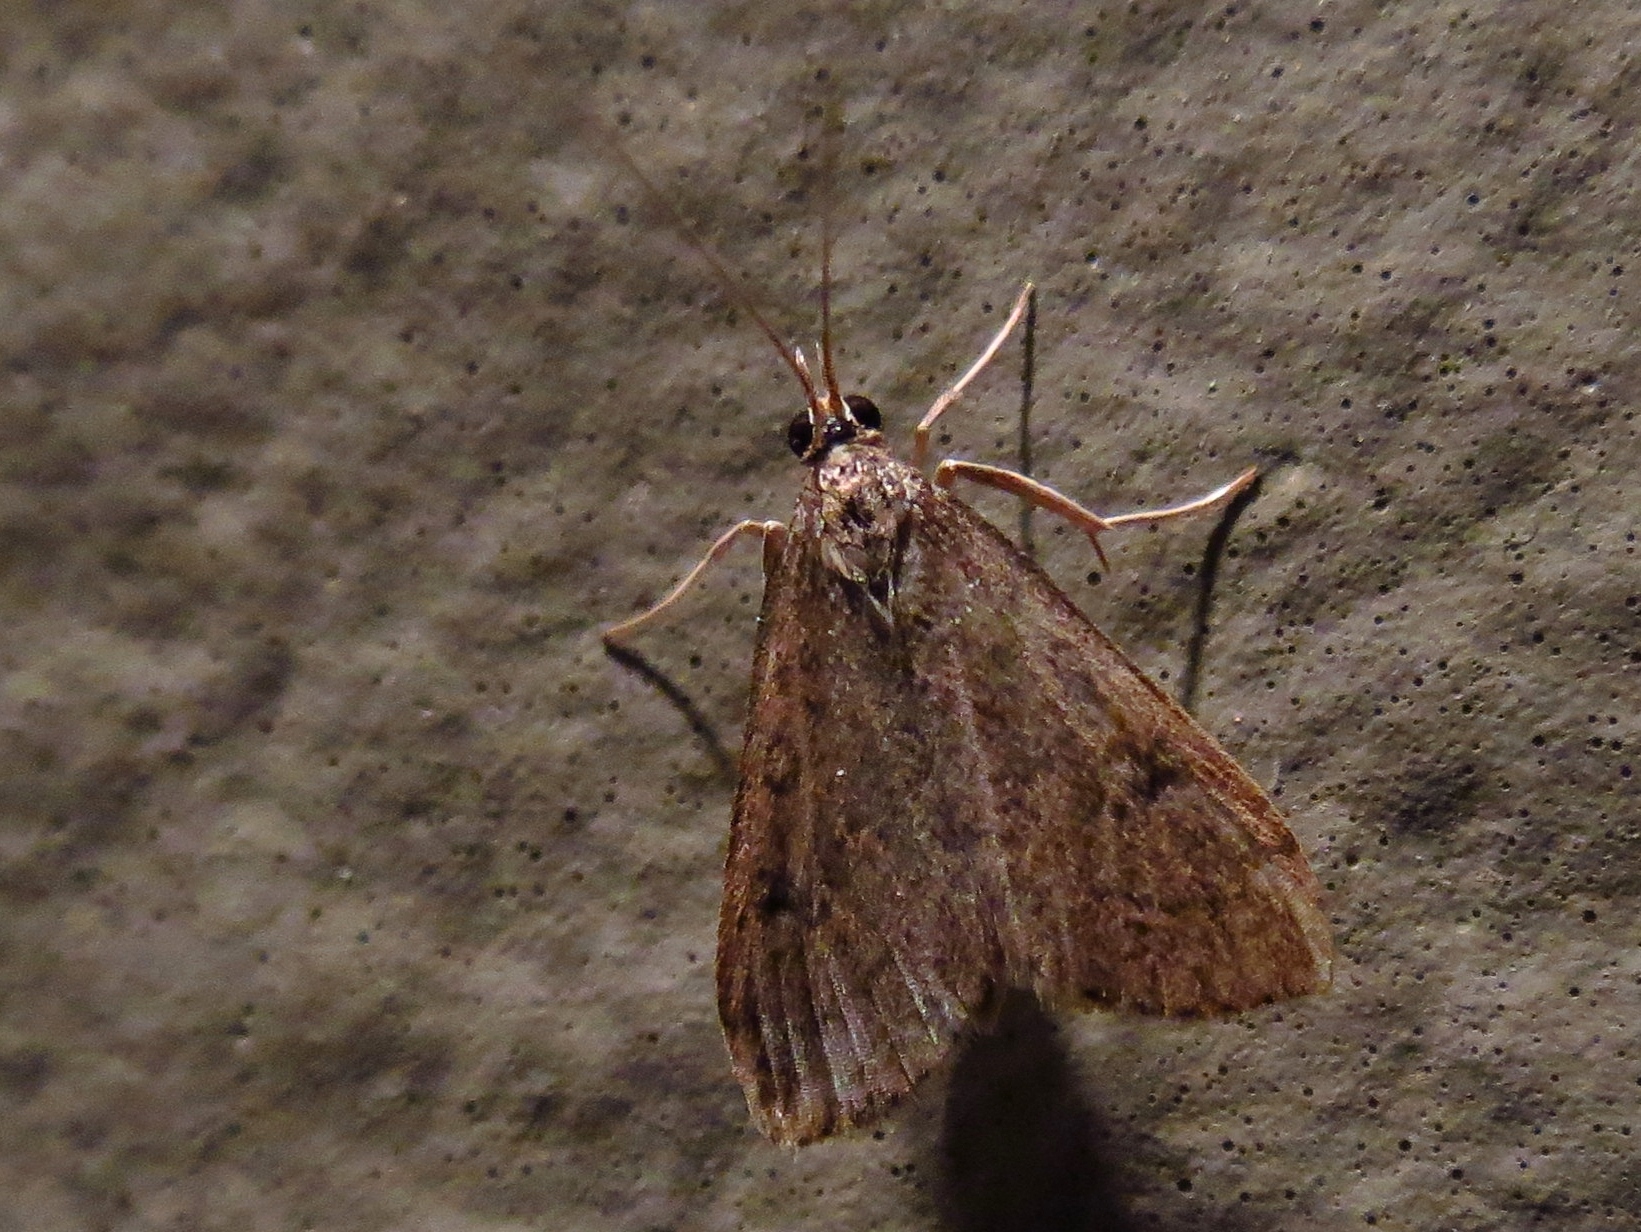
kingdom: Animalia
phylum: Arthropoda
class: Insecta
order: Lepidoptera
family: Crambidae
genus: Udea
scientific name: Udea rubigalis
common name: Celery leaftier moth
